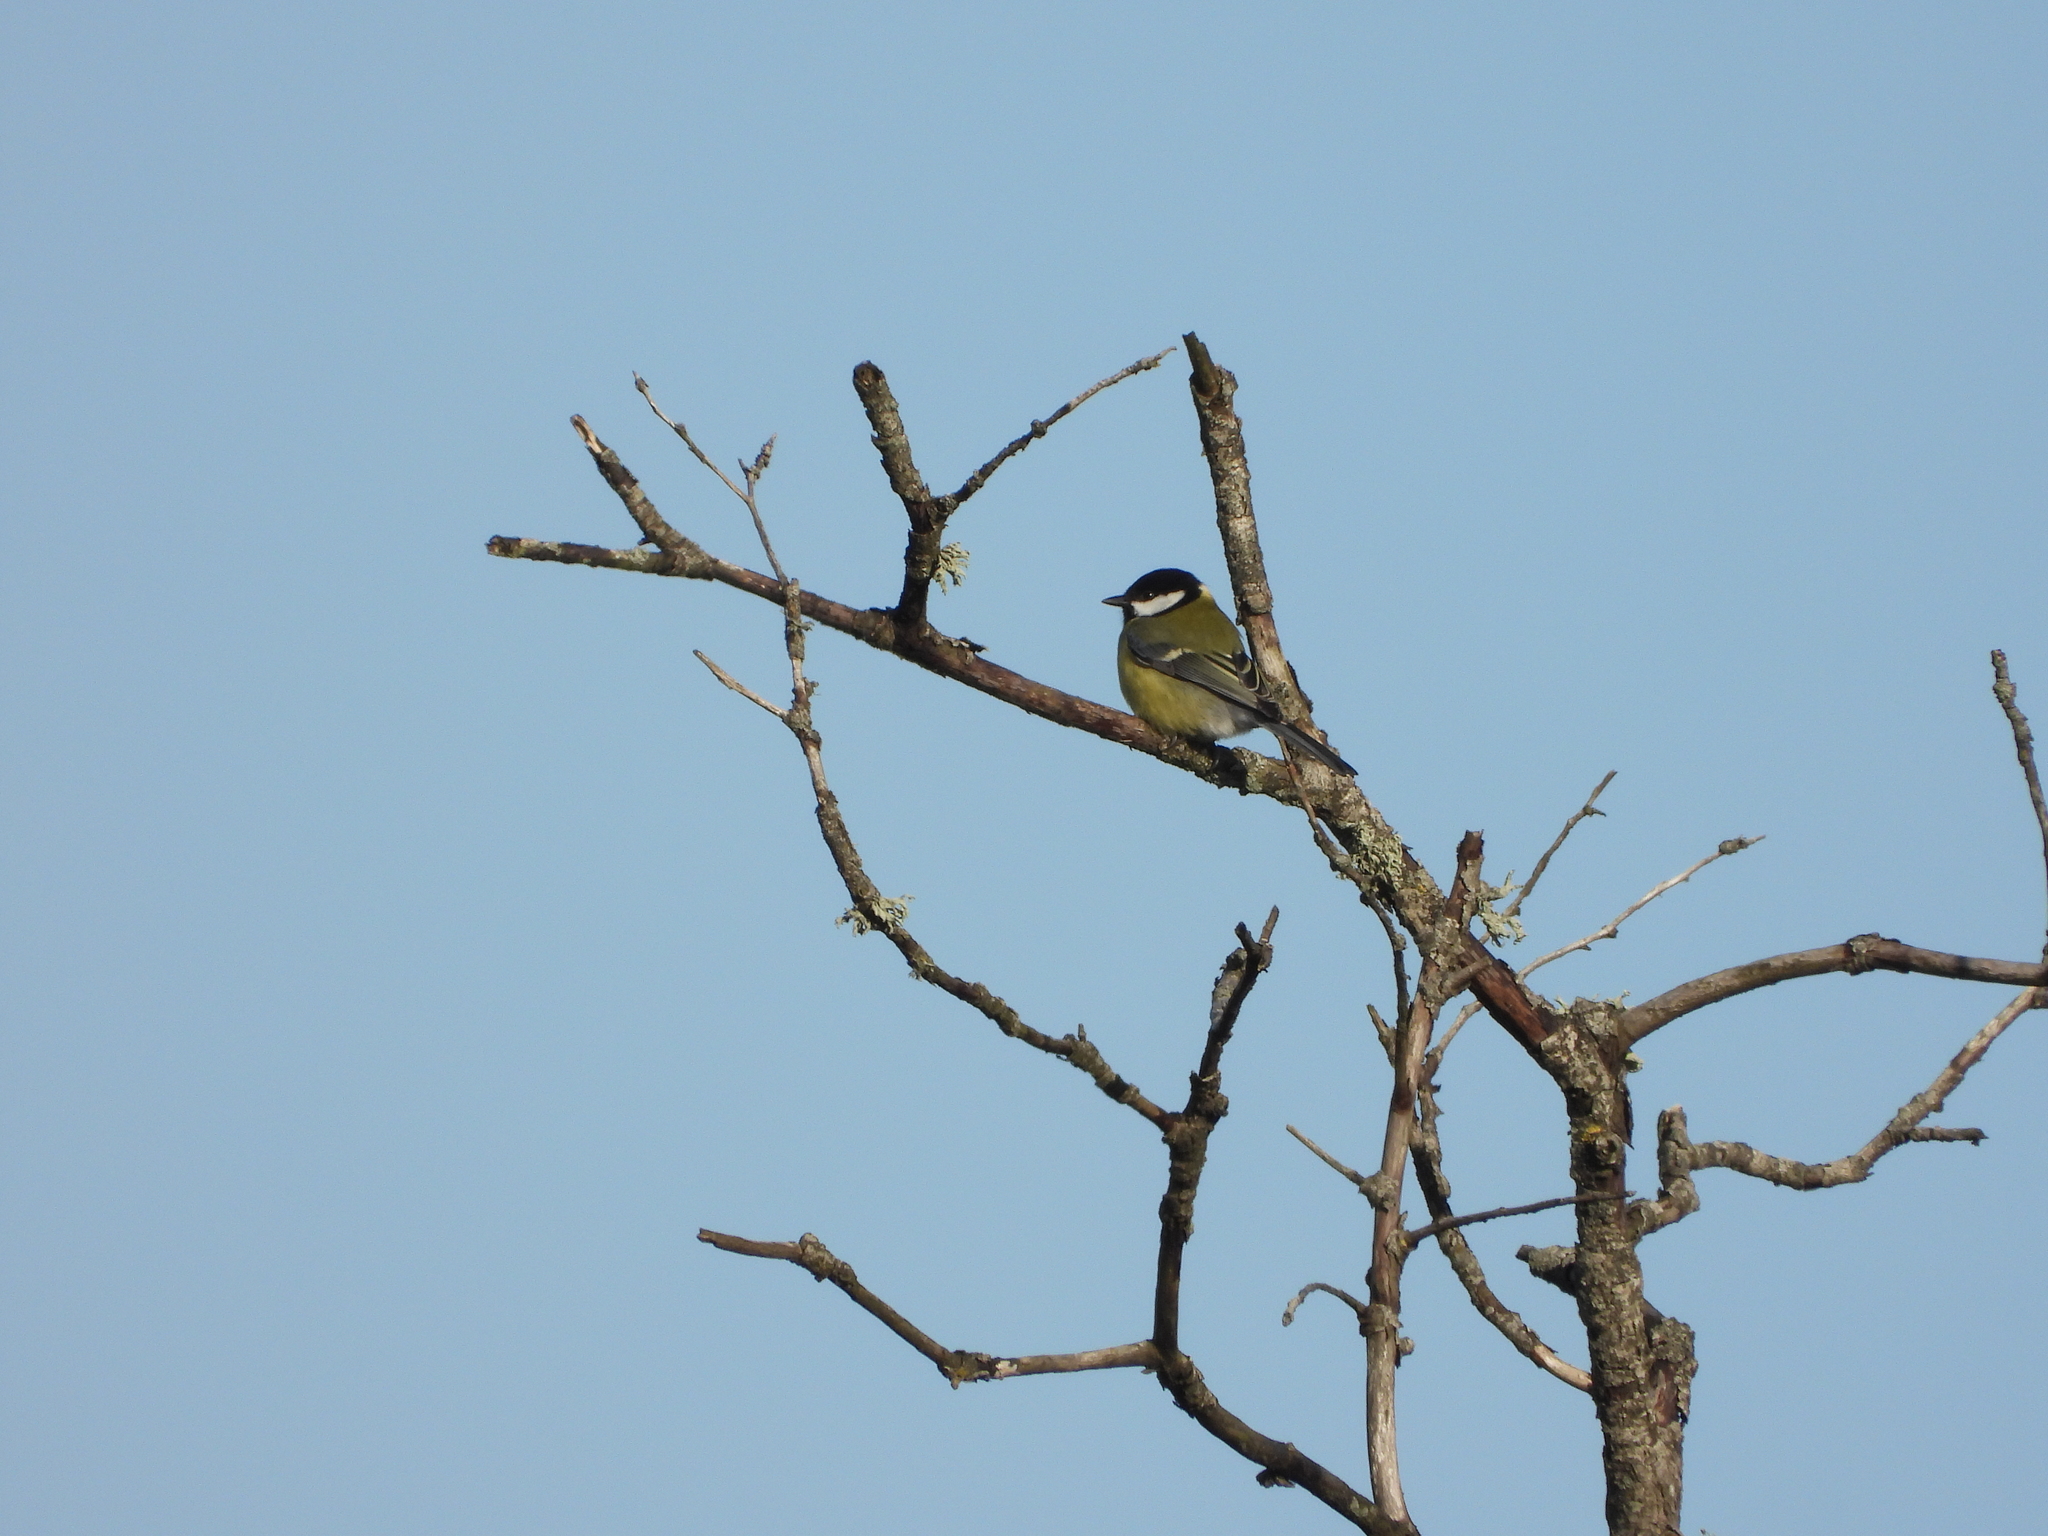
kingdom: Animalia
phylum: Chordata
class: Aves
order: Passeriformes
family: Paridae
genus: Parus
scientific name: Parus major
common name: Great tit
